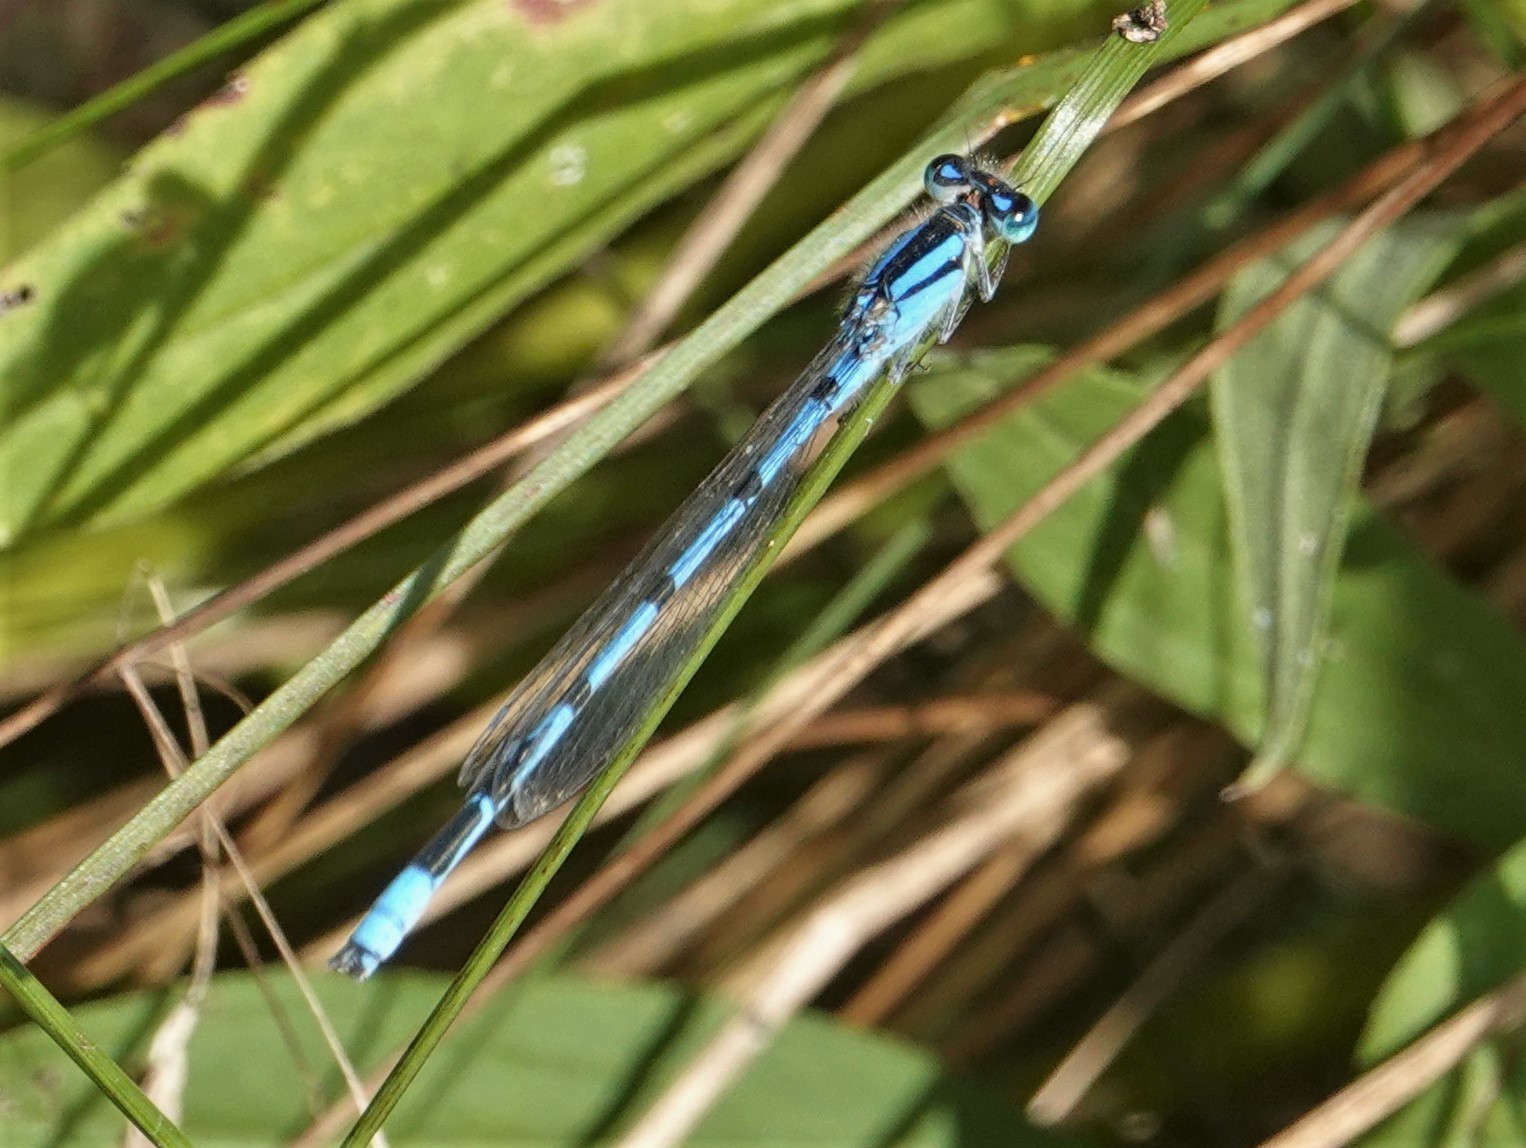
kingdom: Animalia
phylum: Arthropoda
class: Insecta
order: Odonata
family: Coenagrionidae
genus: Enallagma
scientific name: Enallagma civile
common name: Damselfly
